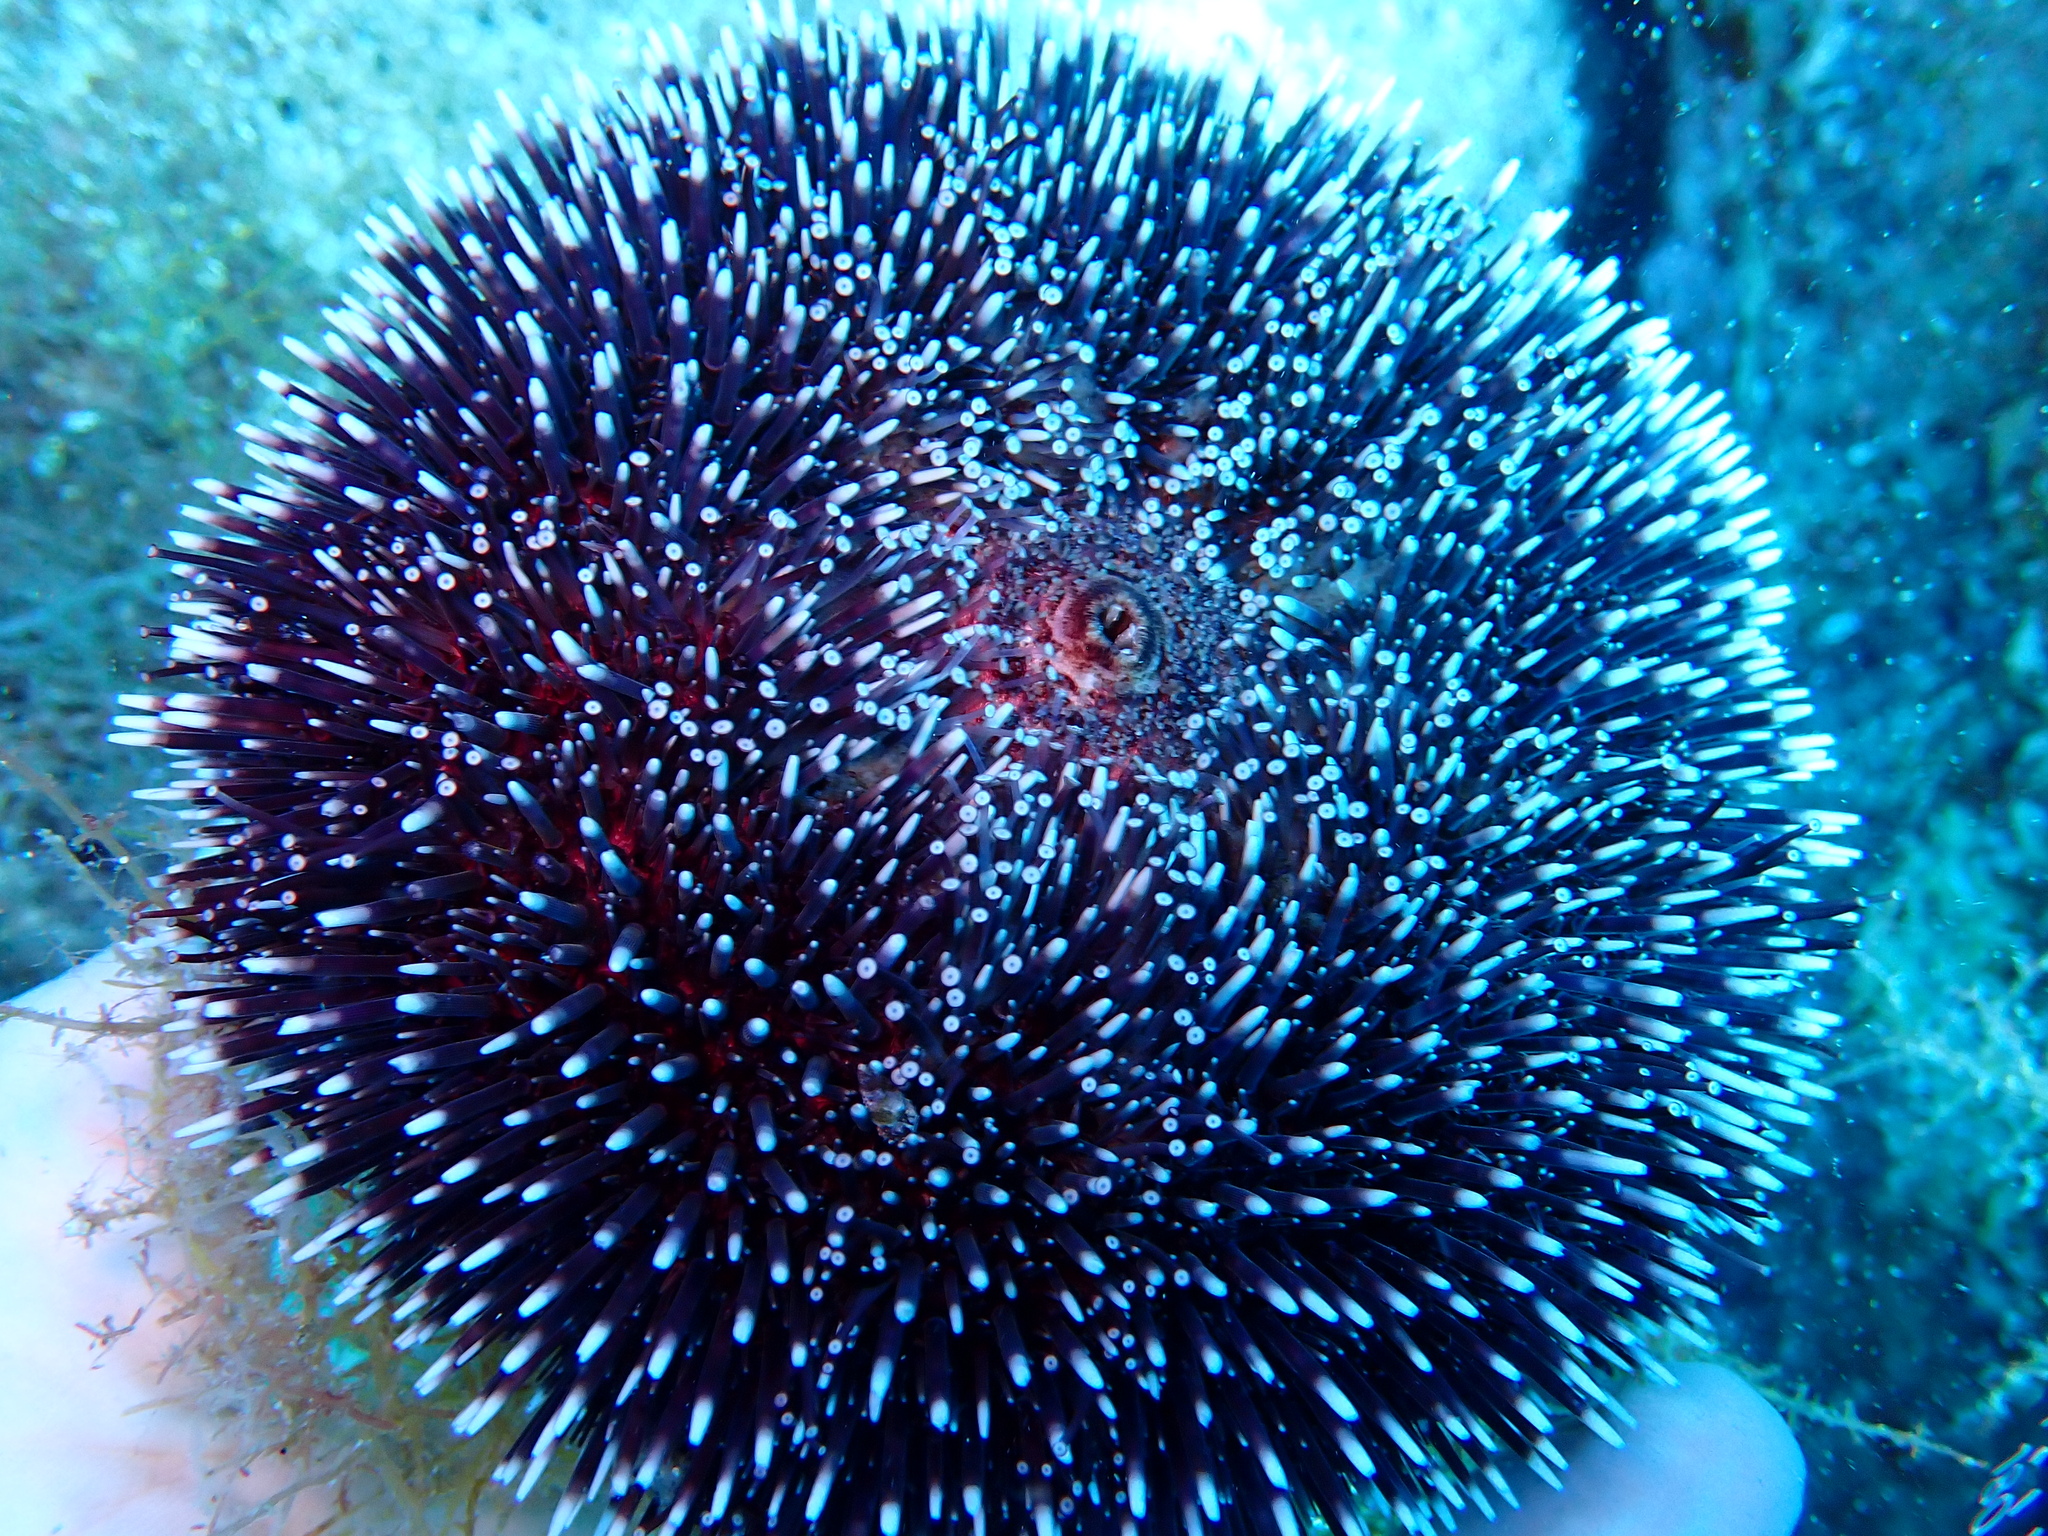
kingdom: Animalia
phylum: Echinodermata
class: Echinoidea
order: Camarodonta
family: Toxopneustidae
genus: Sphaerechinus
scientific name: Sphaerechinus granularis
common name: Violet sea urchin
